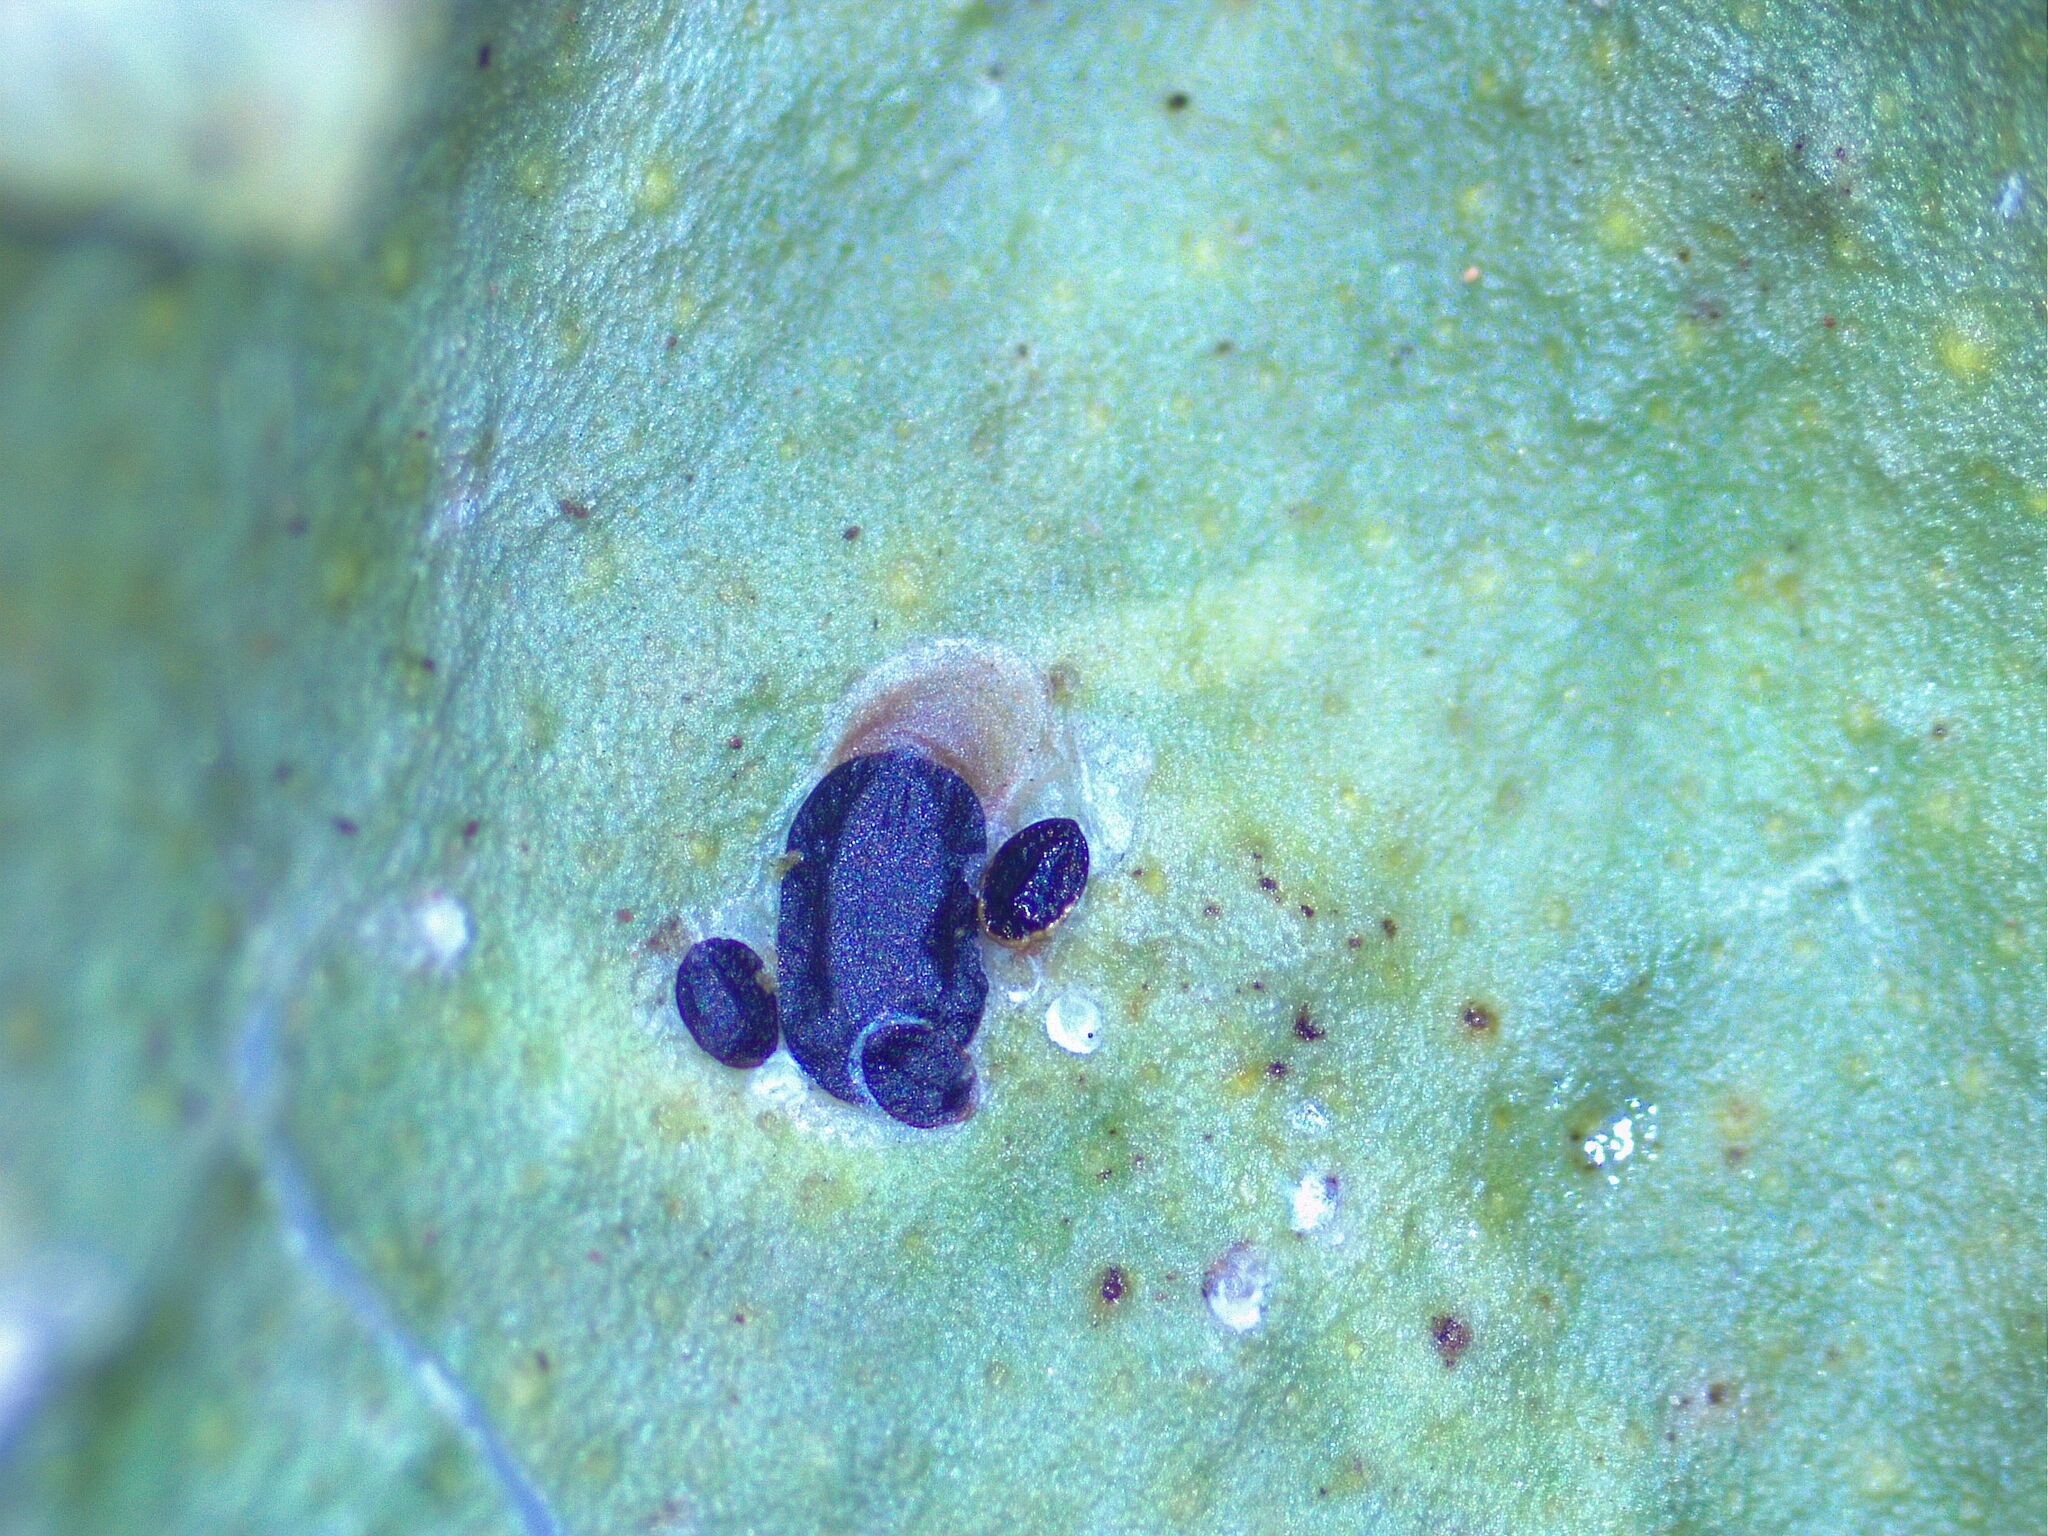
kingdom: Animalia
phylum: Arthropoda
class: Insecta
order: Hemiptera
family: Diaspididae
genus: Parlatoria
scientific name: Parlatoria ziziphi
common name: Mediterranean scale
